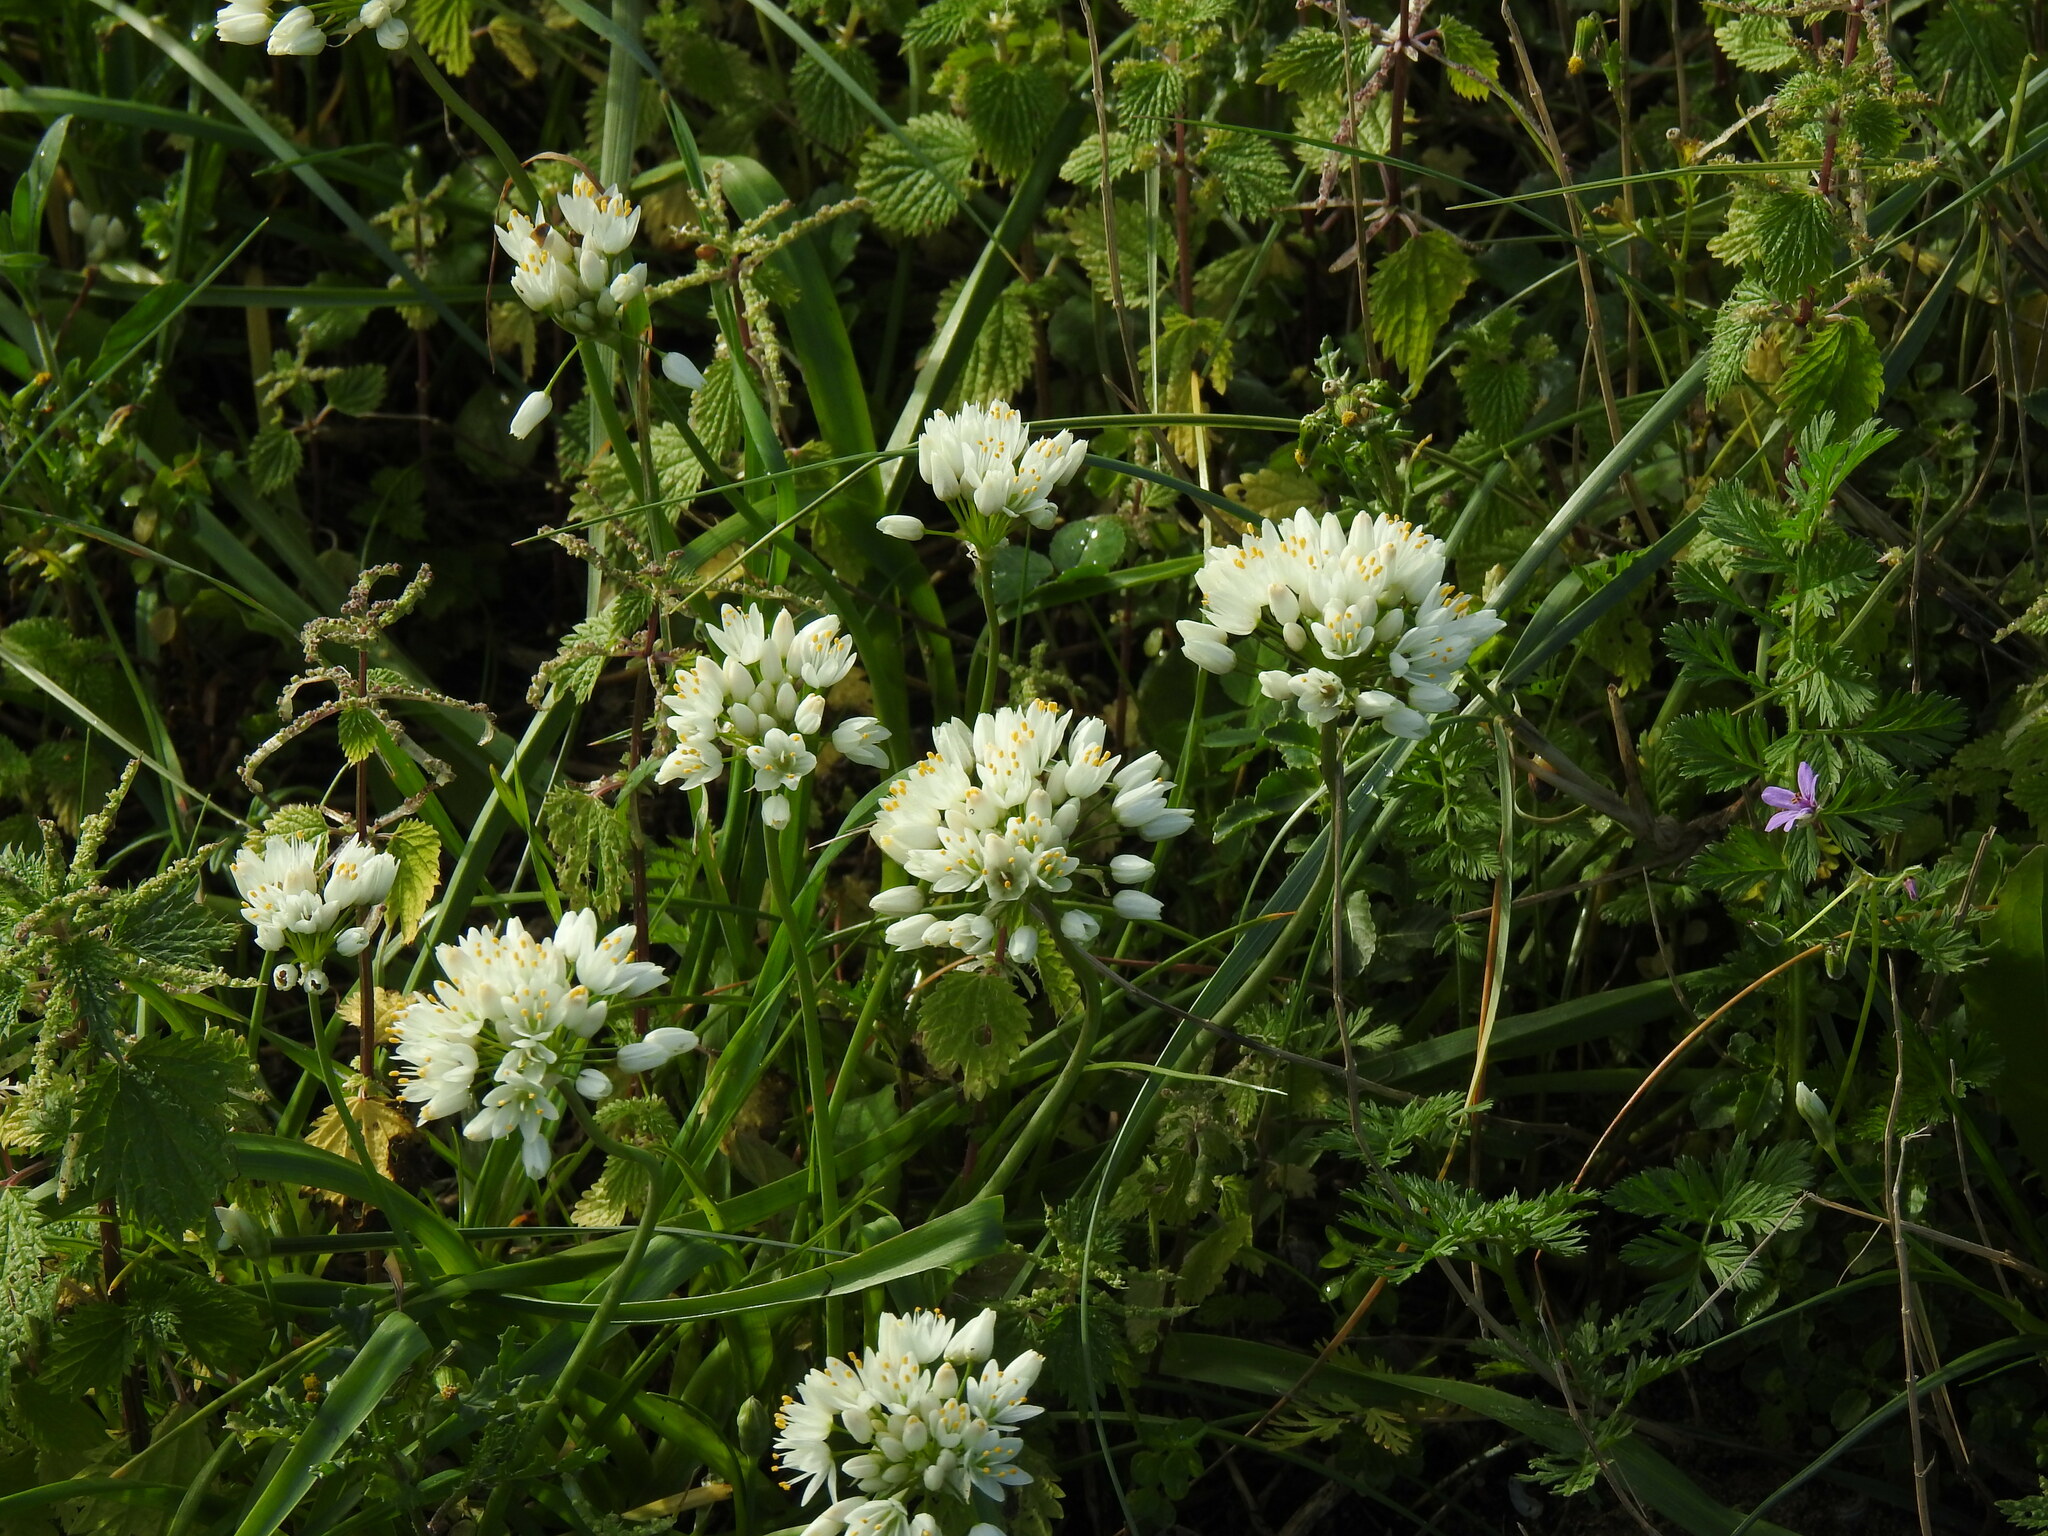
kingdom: Plantae
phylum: Tracheophyta
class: Liliopsida
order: Asparagales
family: Amaryllidaceae
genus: Allium
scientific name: Allium subvillosum
